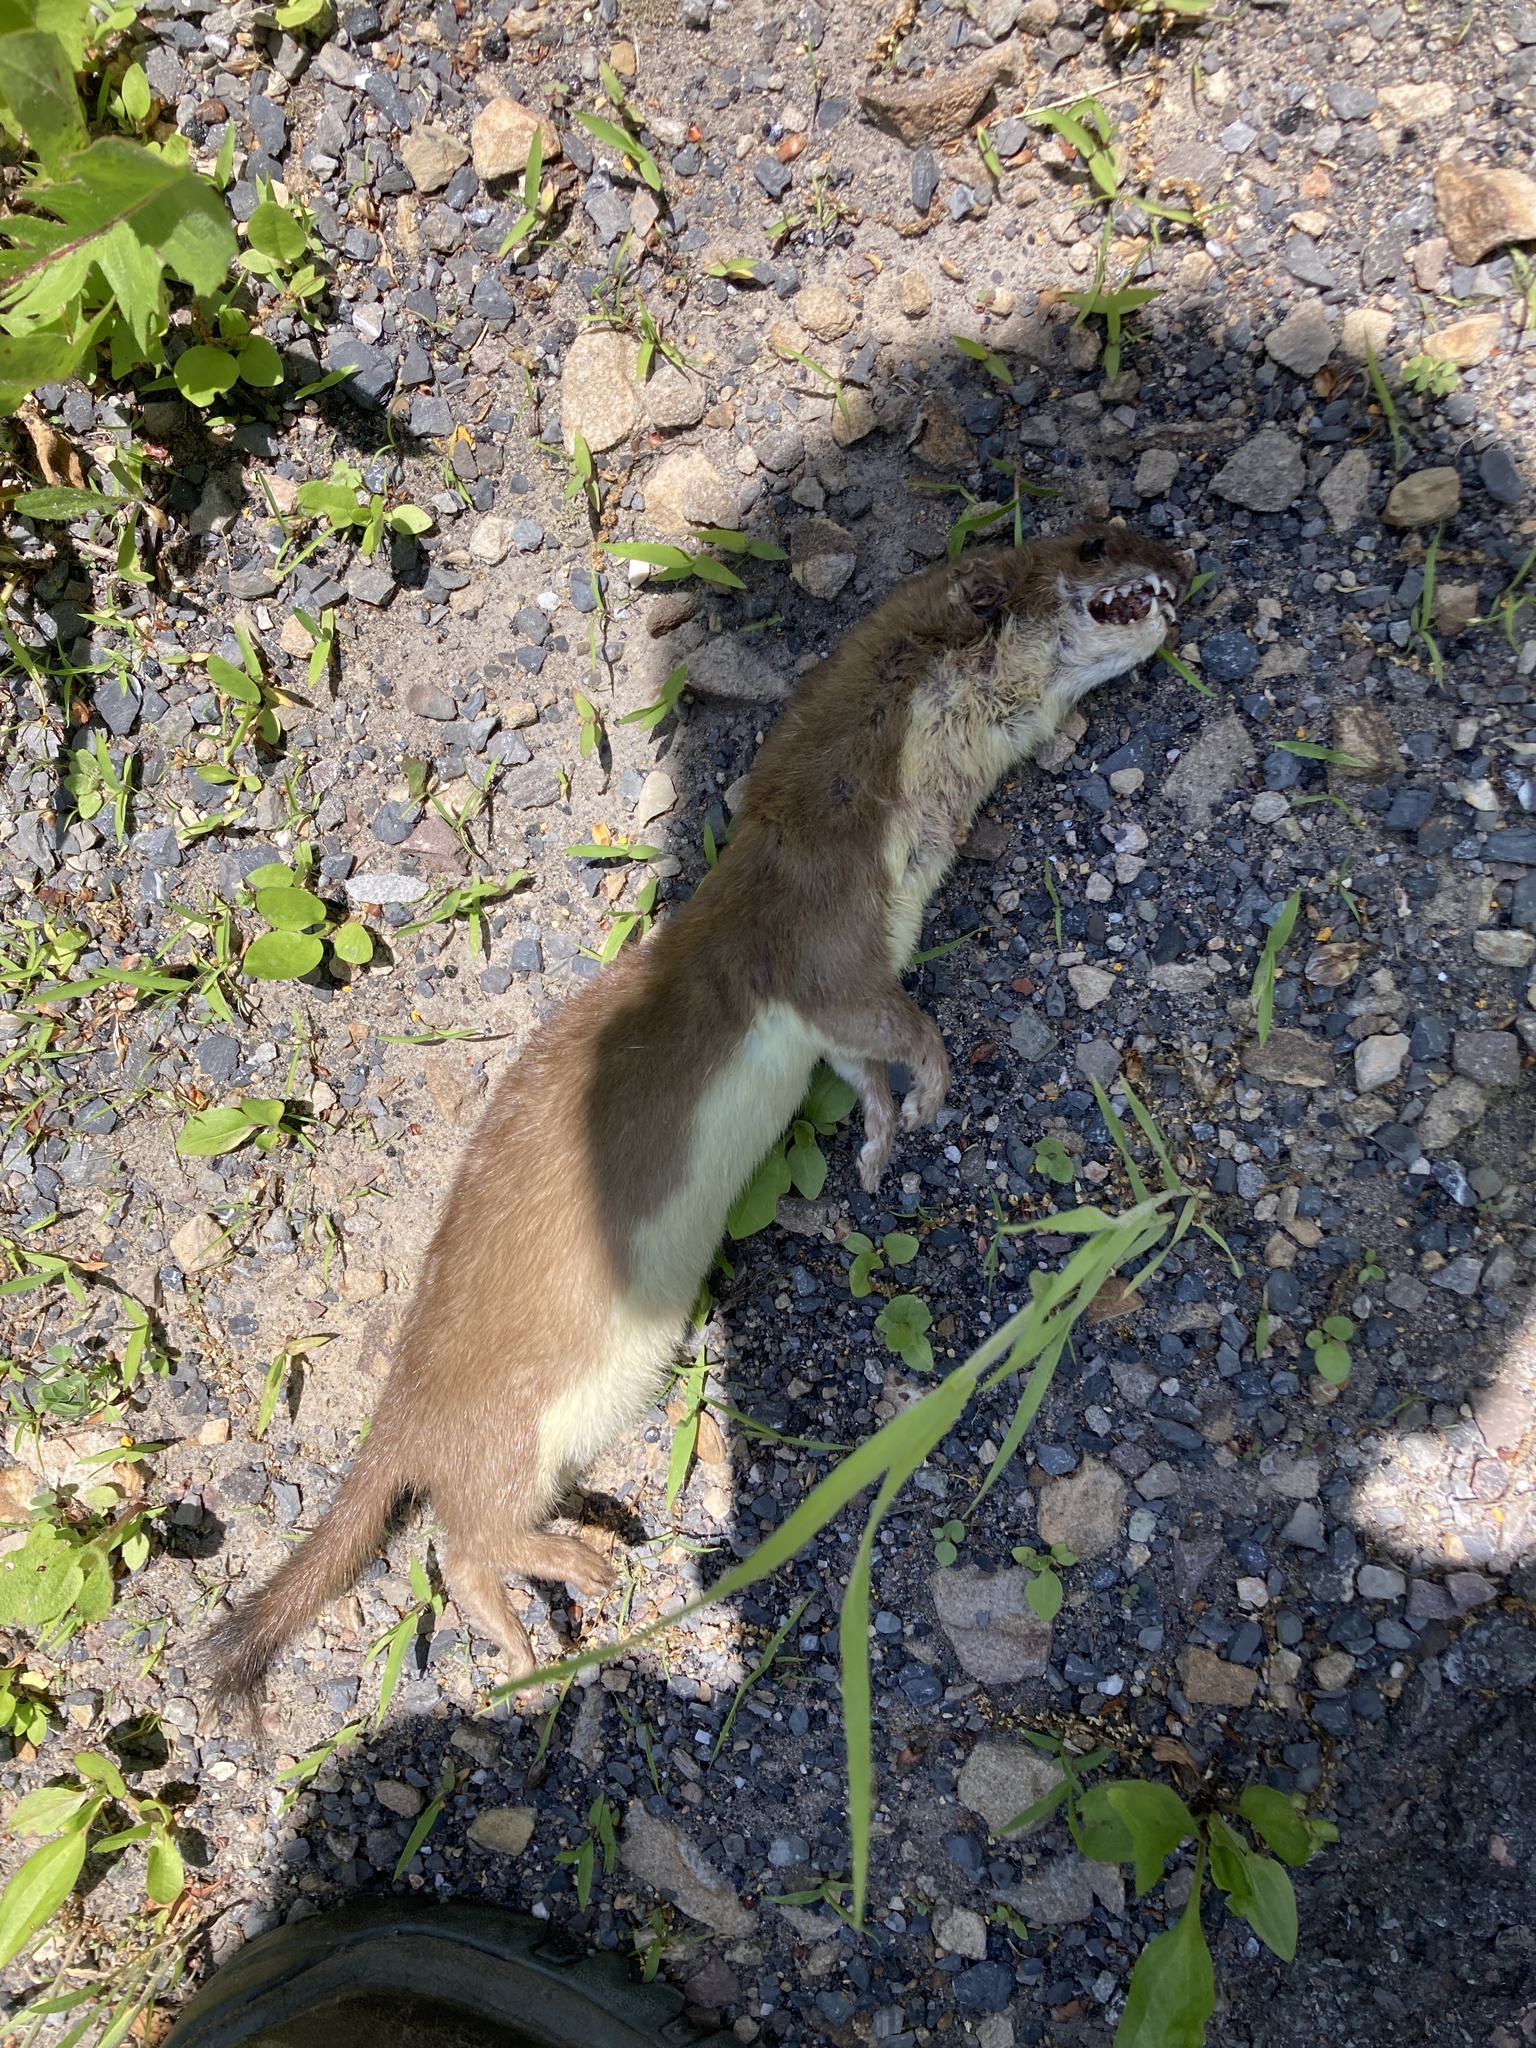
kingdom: Animalia
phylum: Chordata
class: Mammalia
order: Carnivora
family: Mustelidae
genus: Mustela
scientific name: Mustela
